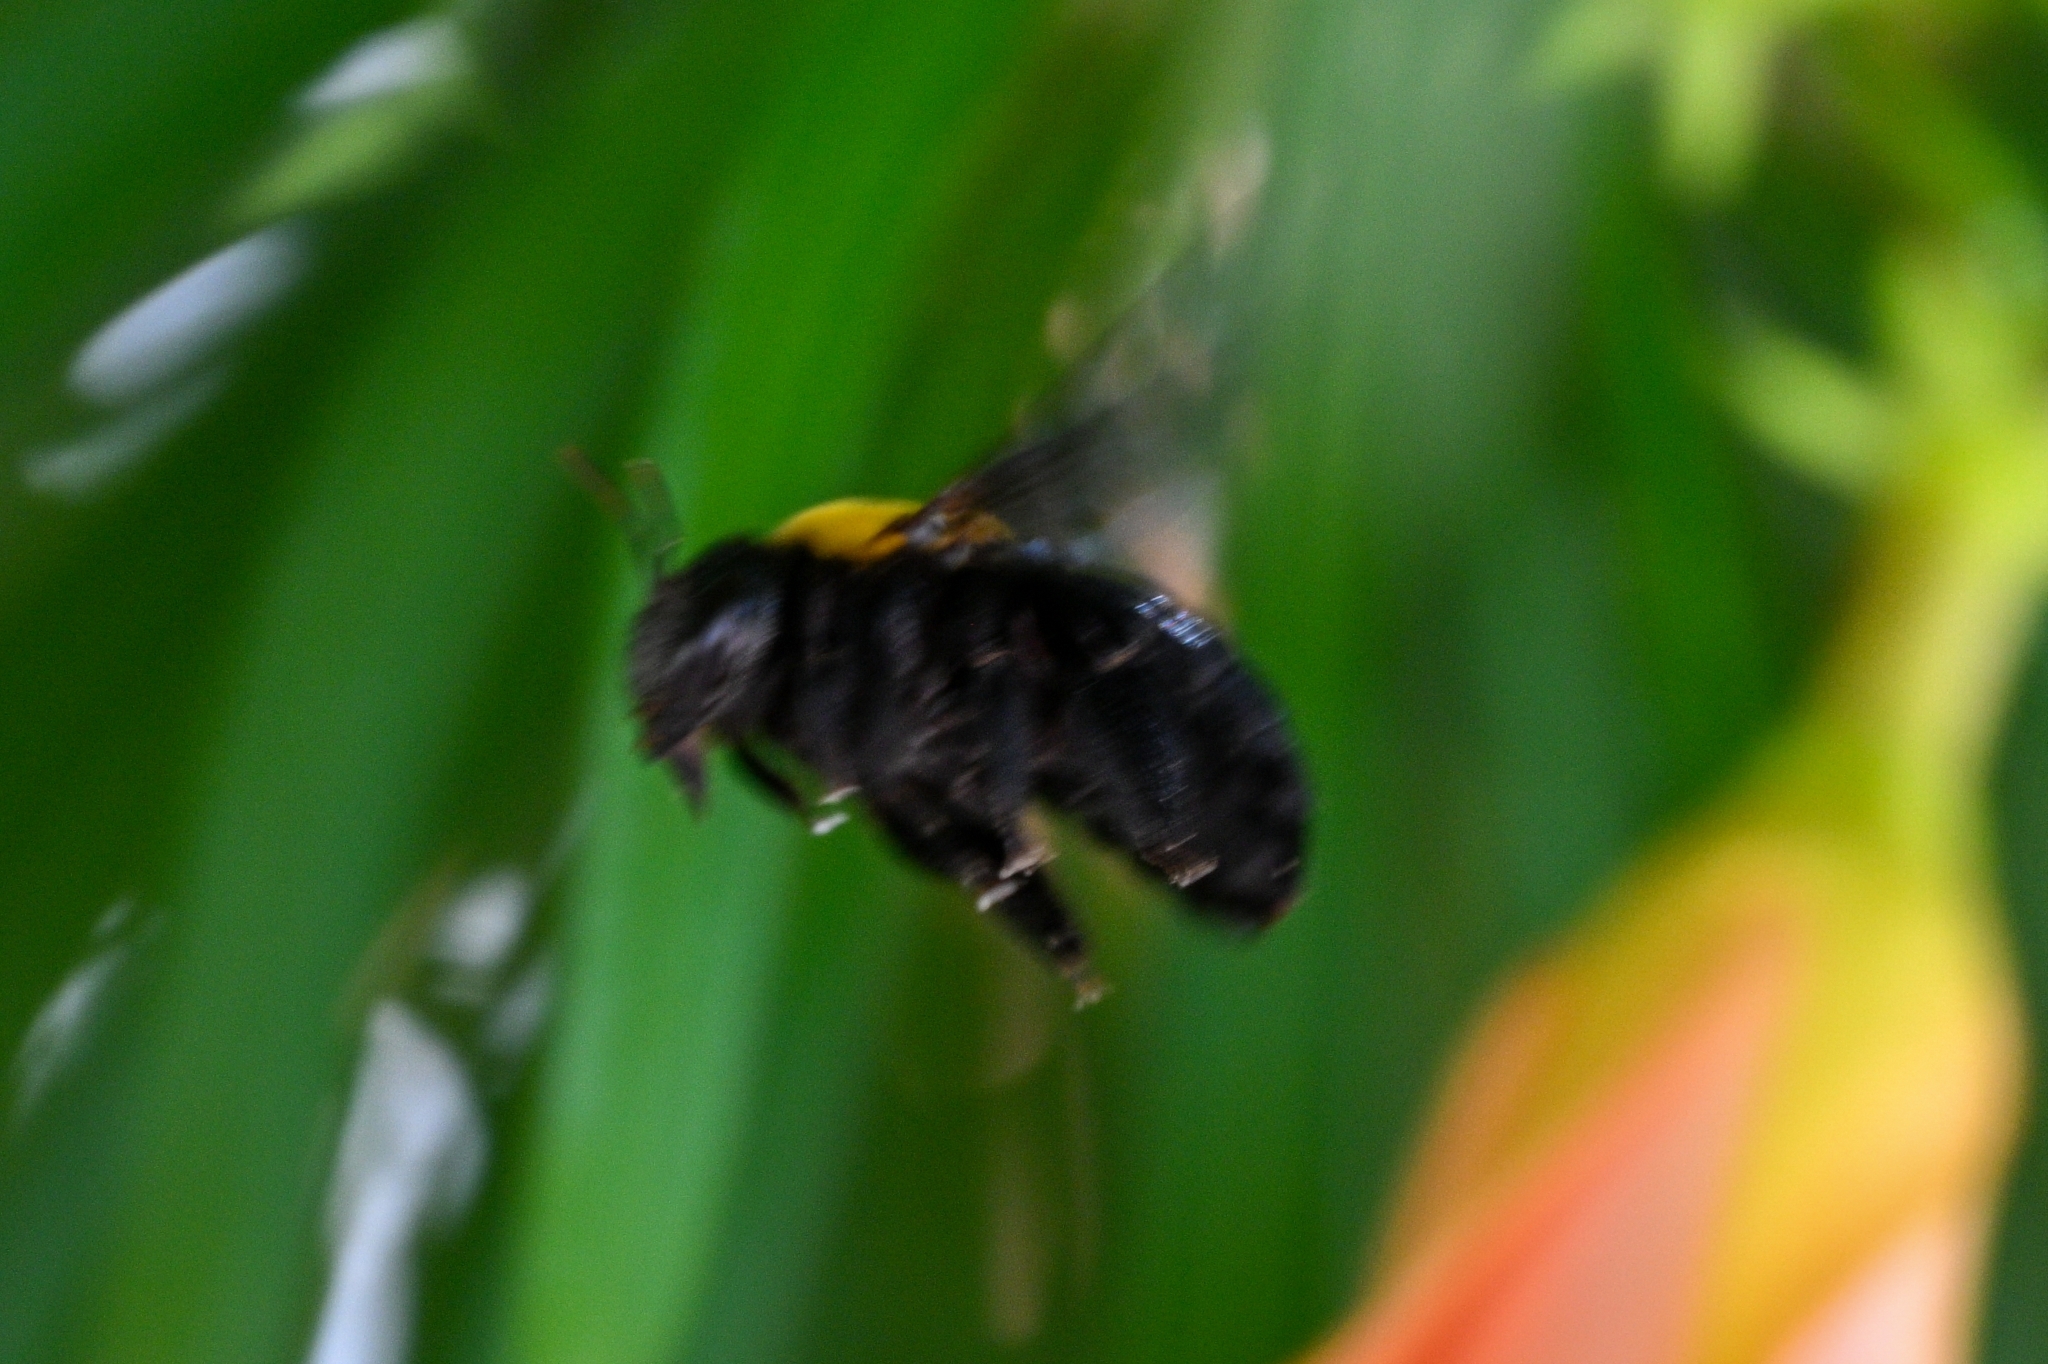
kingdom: Animalia
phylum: Arthropoda
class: Insecta
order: Hymenoptera
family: Apidae
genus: Xylocopa
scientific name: Xylocopa pubescens
